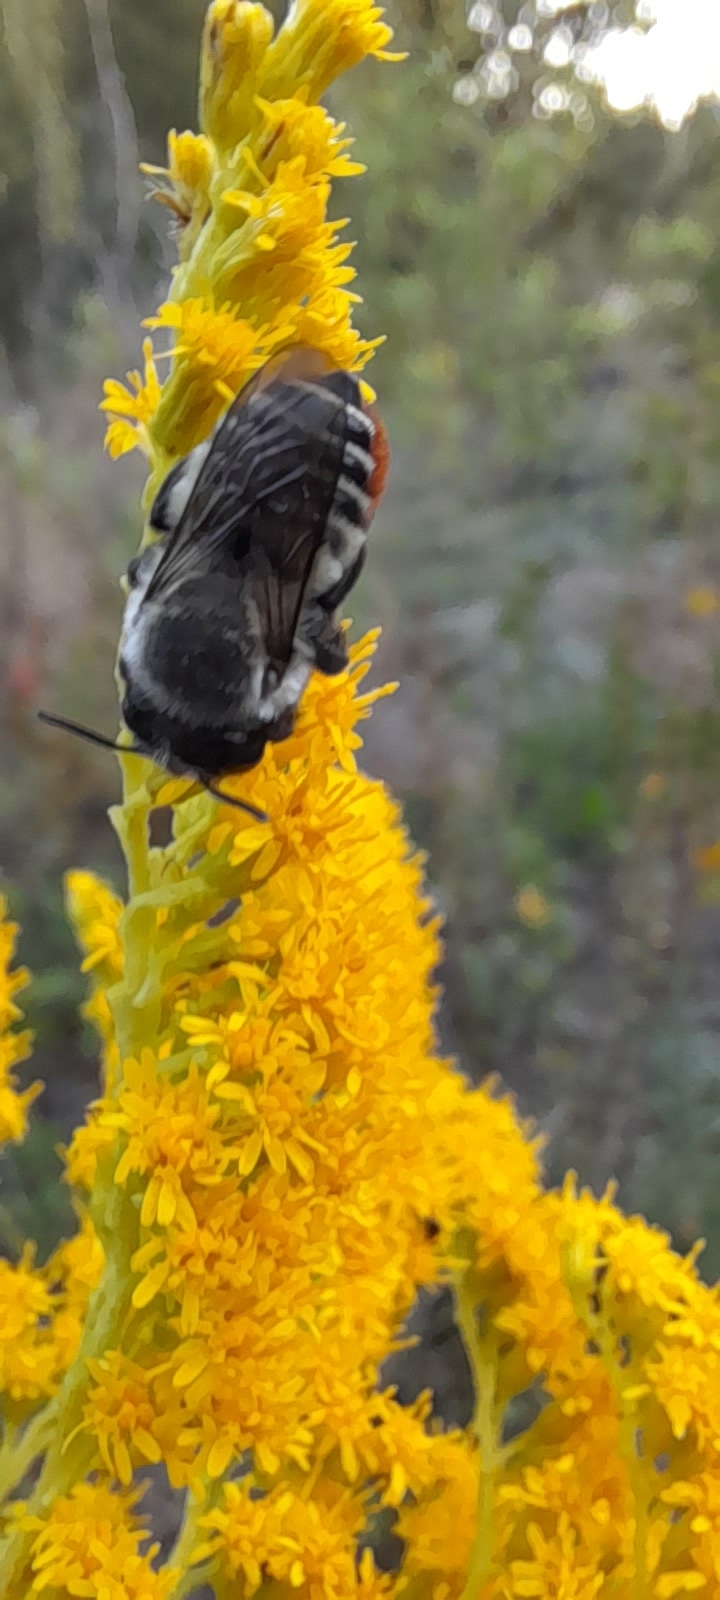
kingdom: Animalia
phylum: Arthropoda
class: Insecta
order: Hymenoptera
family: Megachilidae
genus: Megachile
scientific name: Megachile pollinosa
